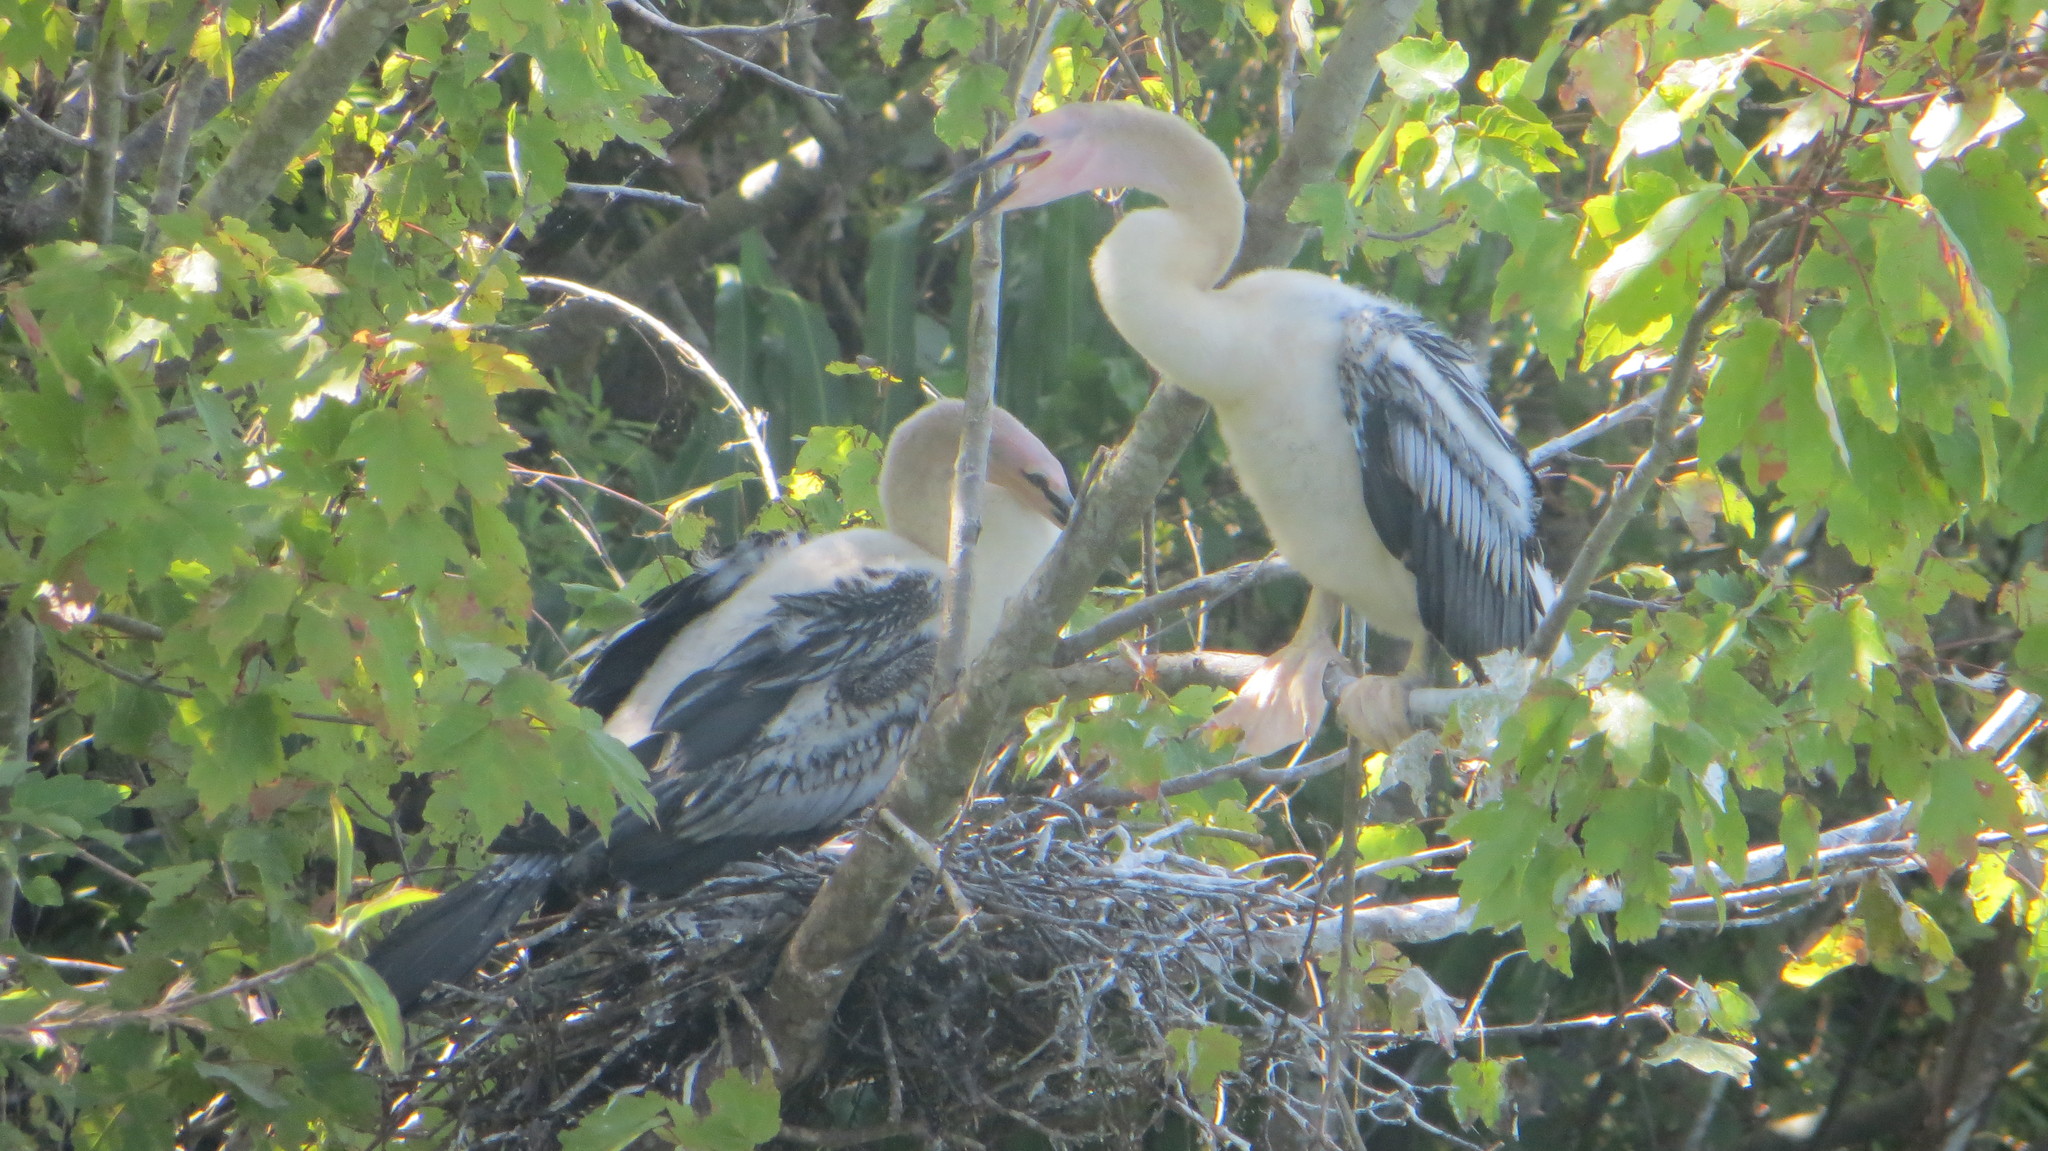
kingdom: Animalia
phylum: Chordata
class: Aves
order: Suliformes
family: Anhingidae
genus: Anhinga
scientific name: Anhinga anhinga
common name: Anhinga
